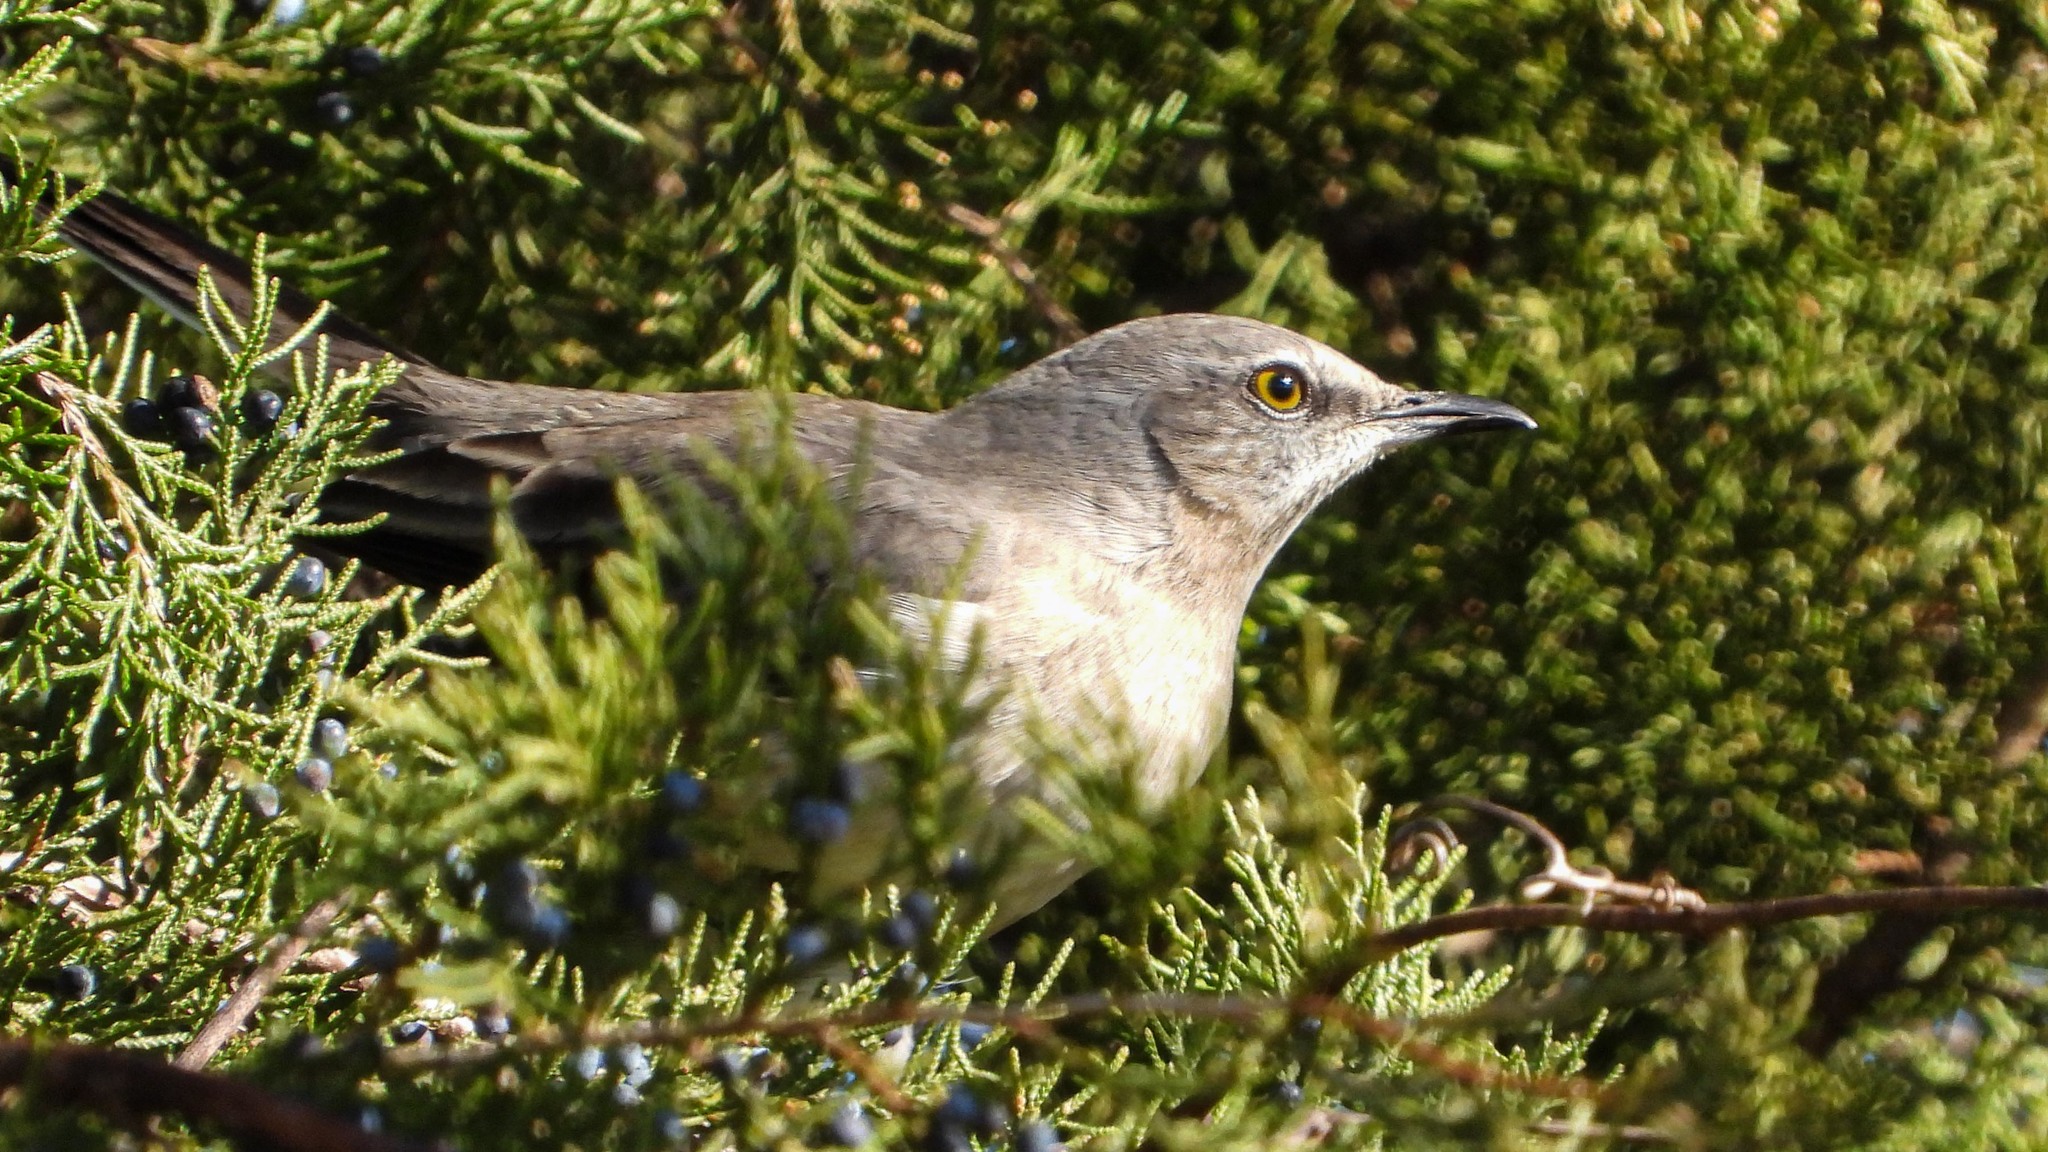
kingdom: Animalia
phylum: Chordata
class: Aves
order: Passeriformes
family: Mimidae
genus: Mimus
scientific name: Mimus polyglottos
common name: Northern mockingbird
